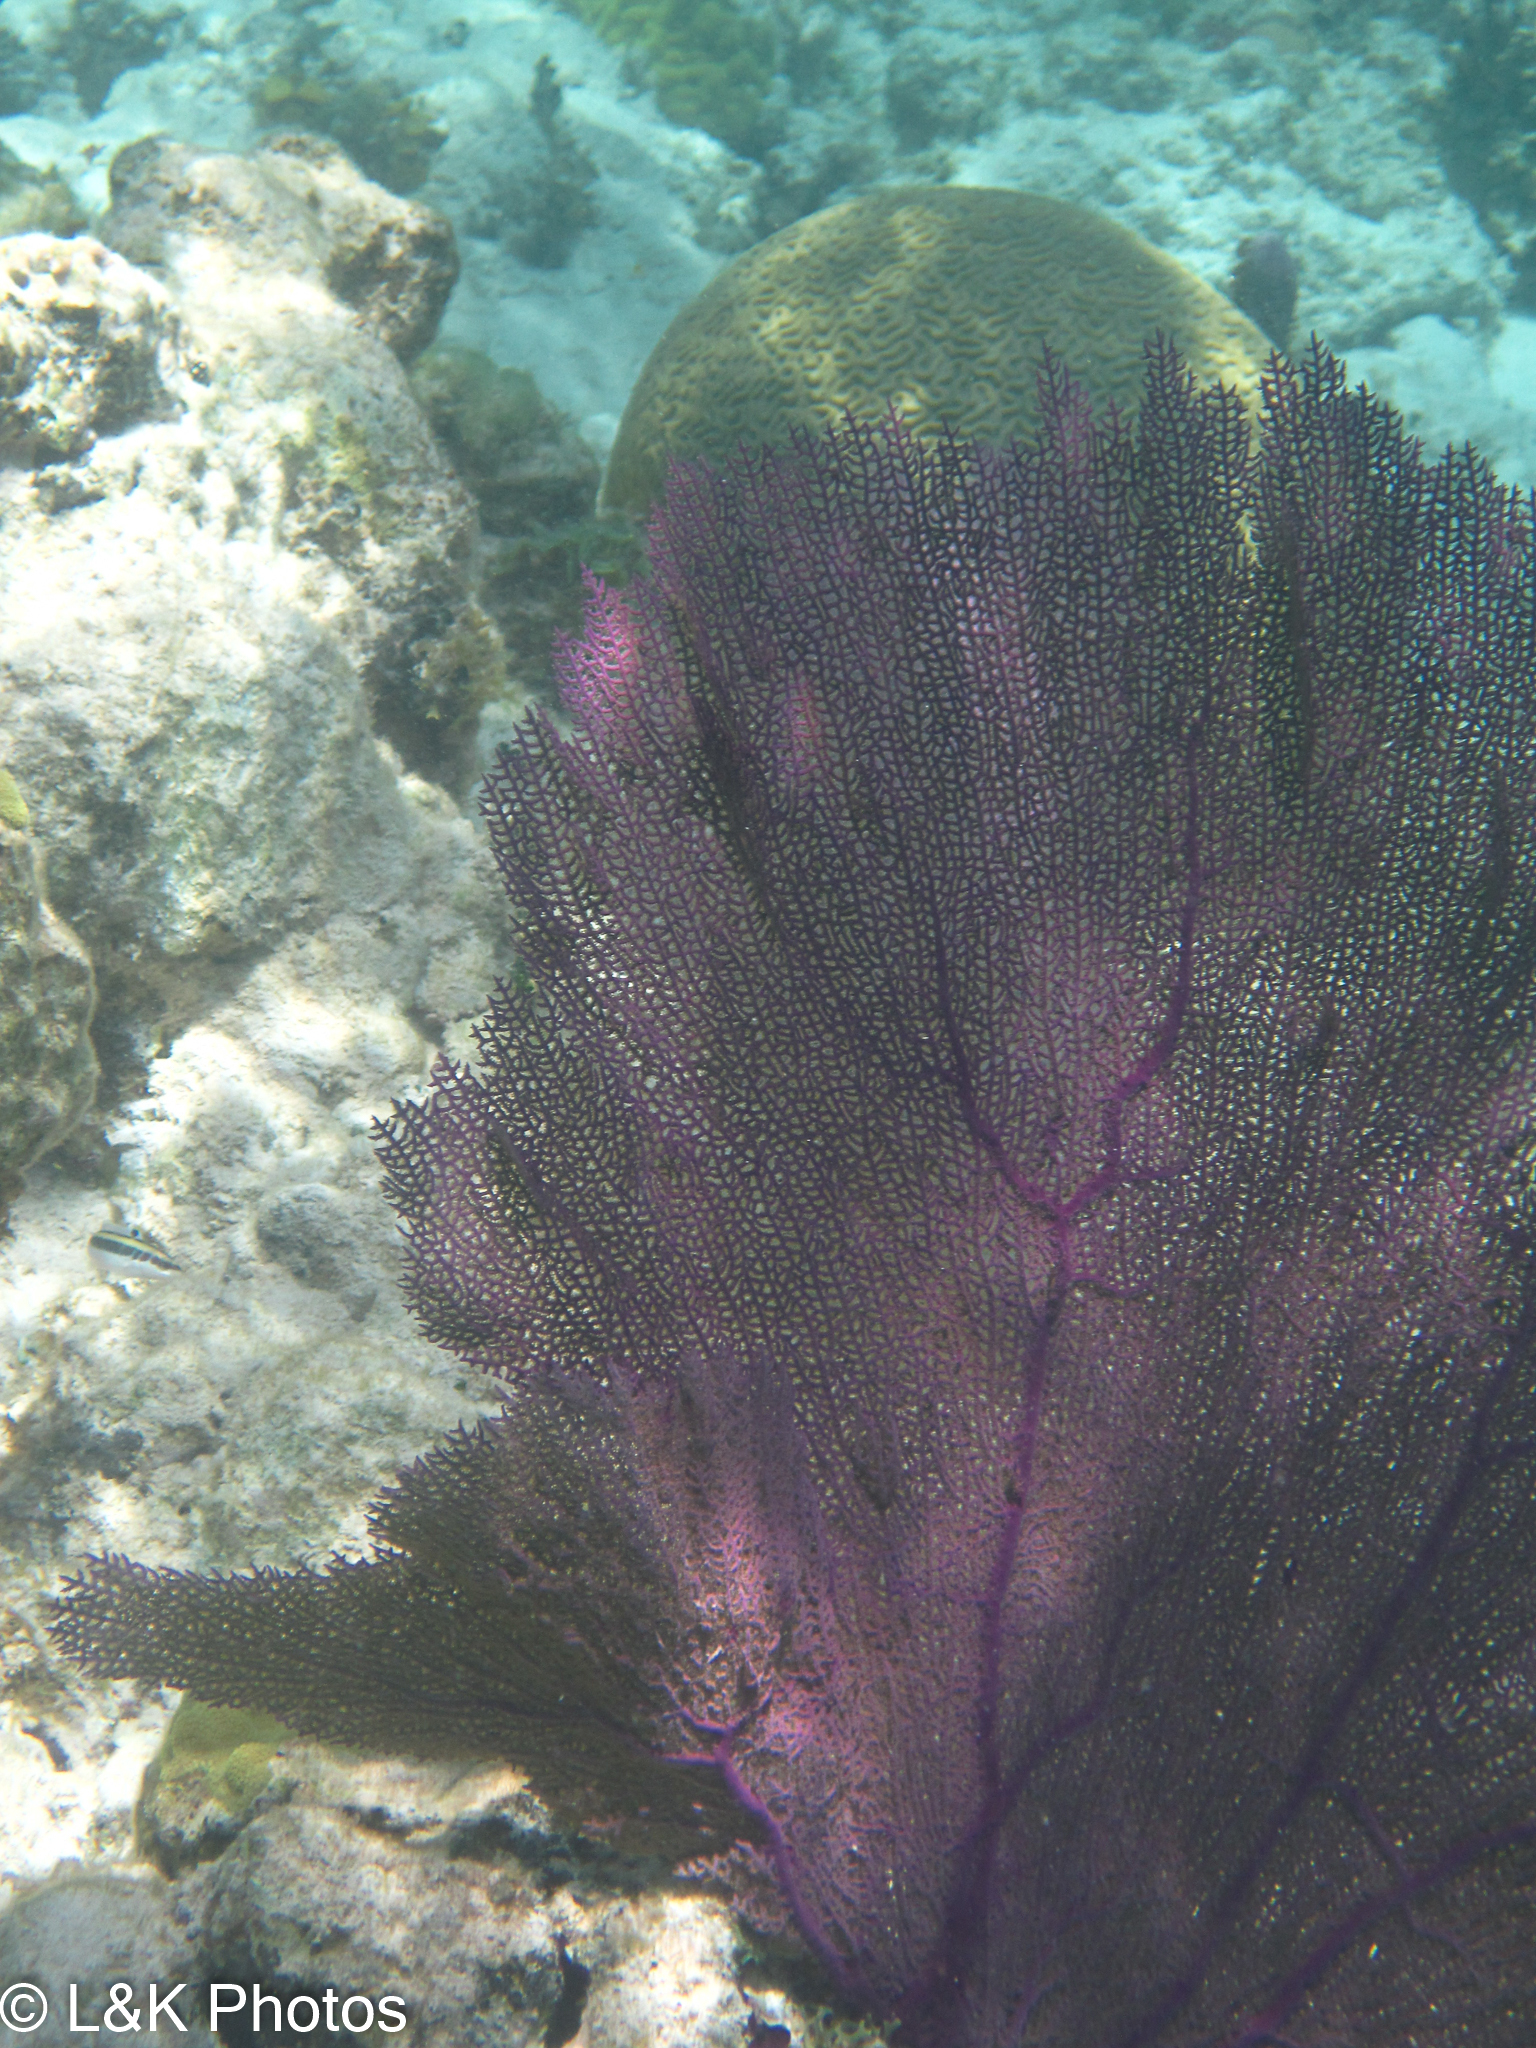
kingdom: Animalia
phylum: Cnidaria
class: Anthozoa
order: Malacalcyonacea
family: Gorgoniidae
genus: Gorgonia
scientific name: Gorgonia ventalina
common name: Common sea fan
